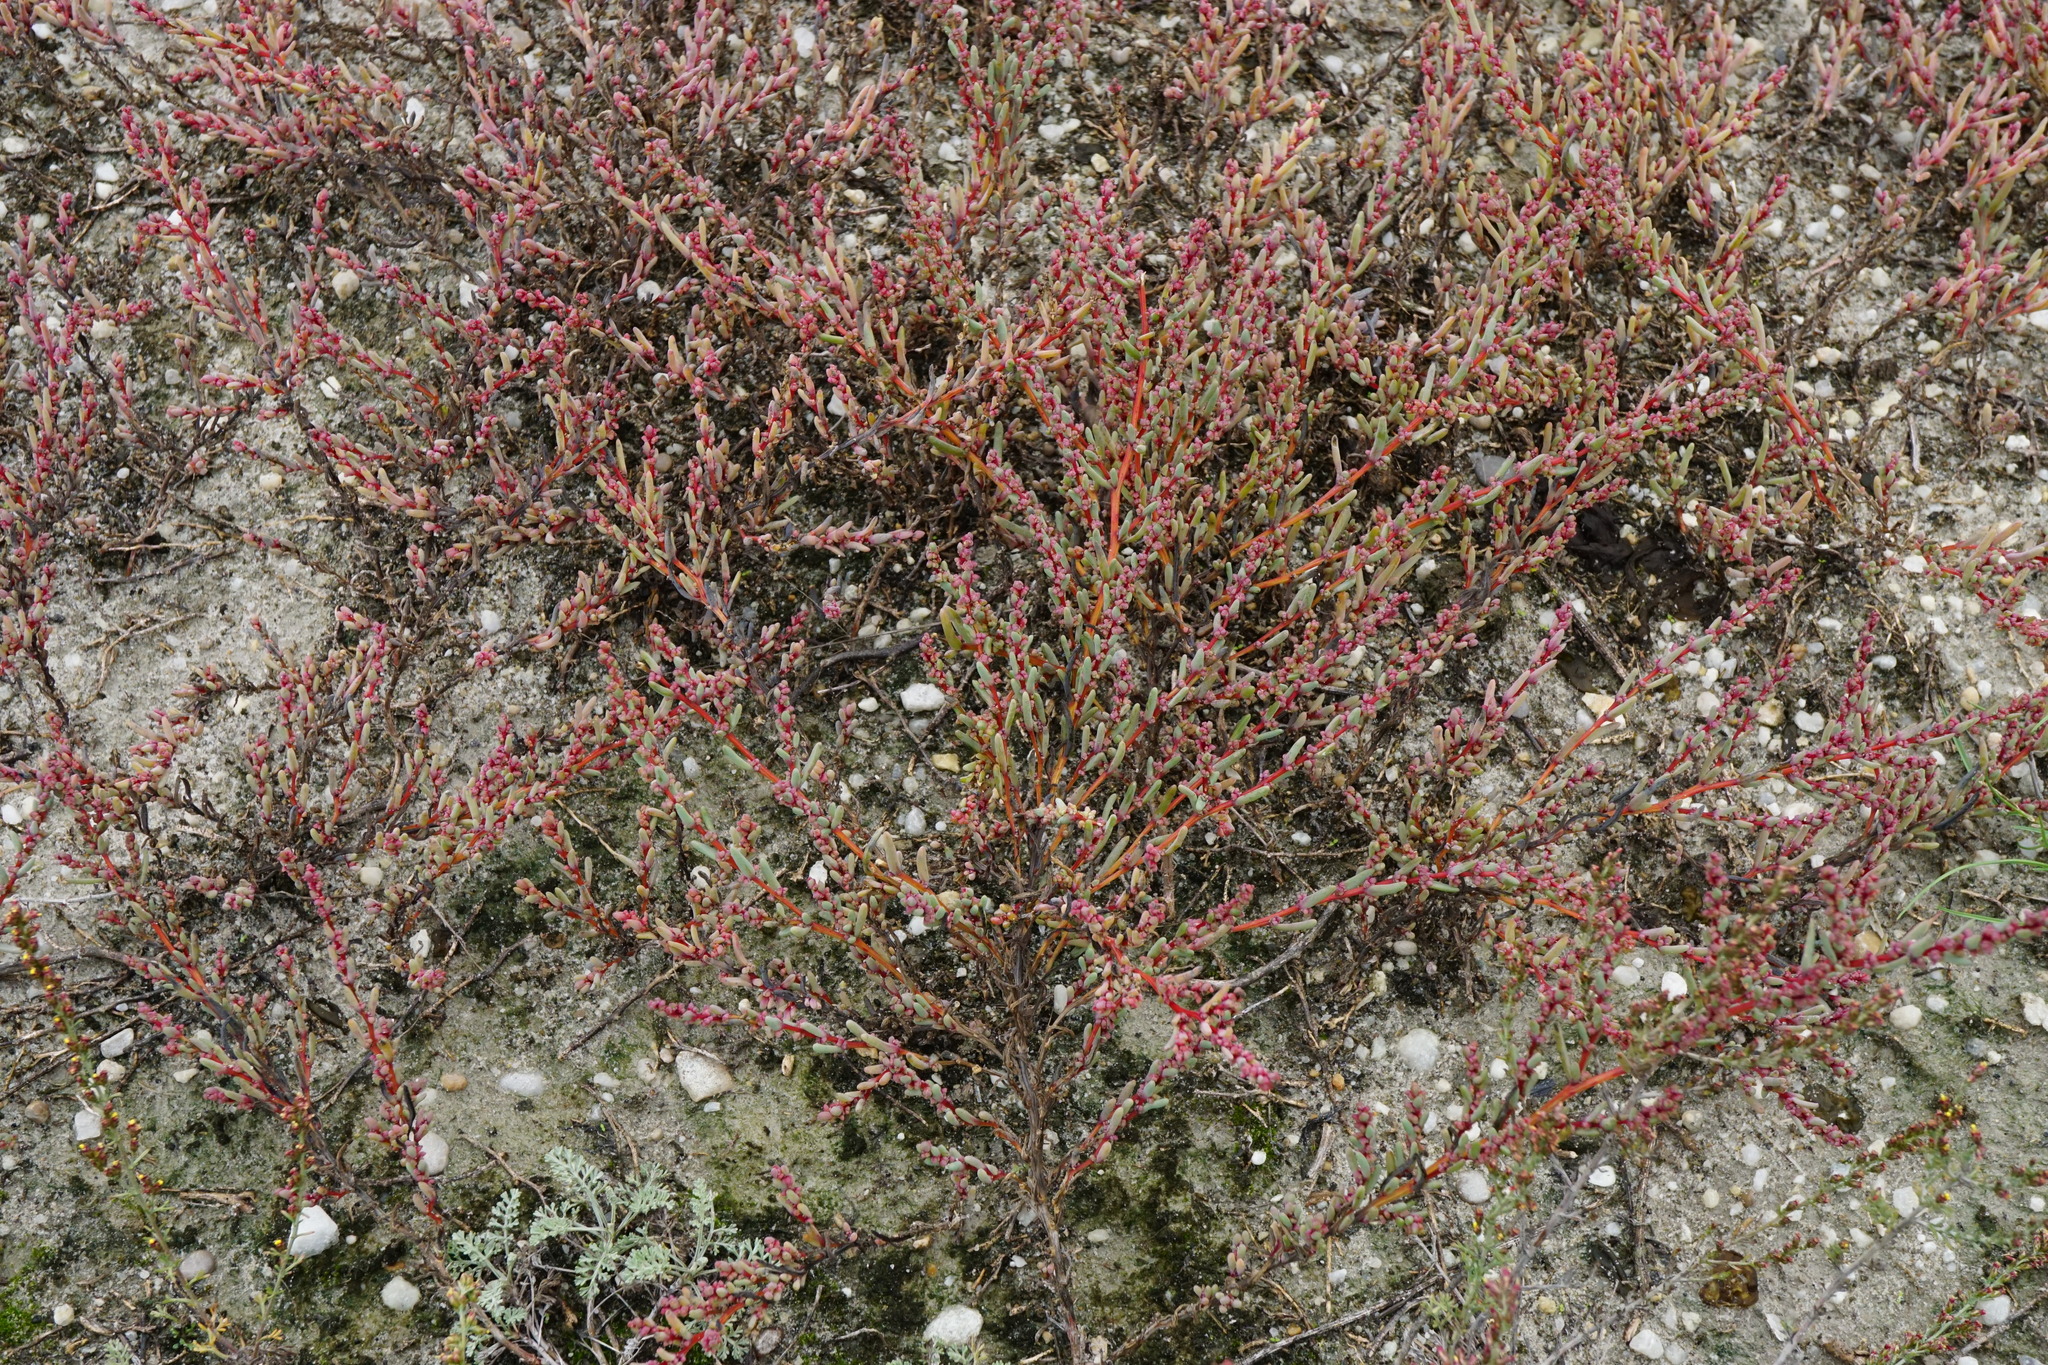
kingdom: Plantae
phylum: Tracheophyta
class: Magnoliopsida
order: Caryophyllales
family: Amaranthaceae
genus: Suaeda
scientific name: Suaeda pannonica
